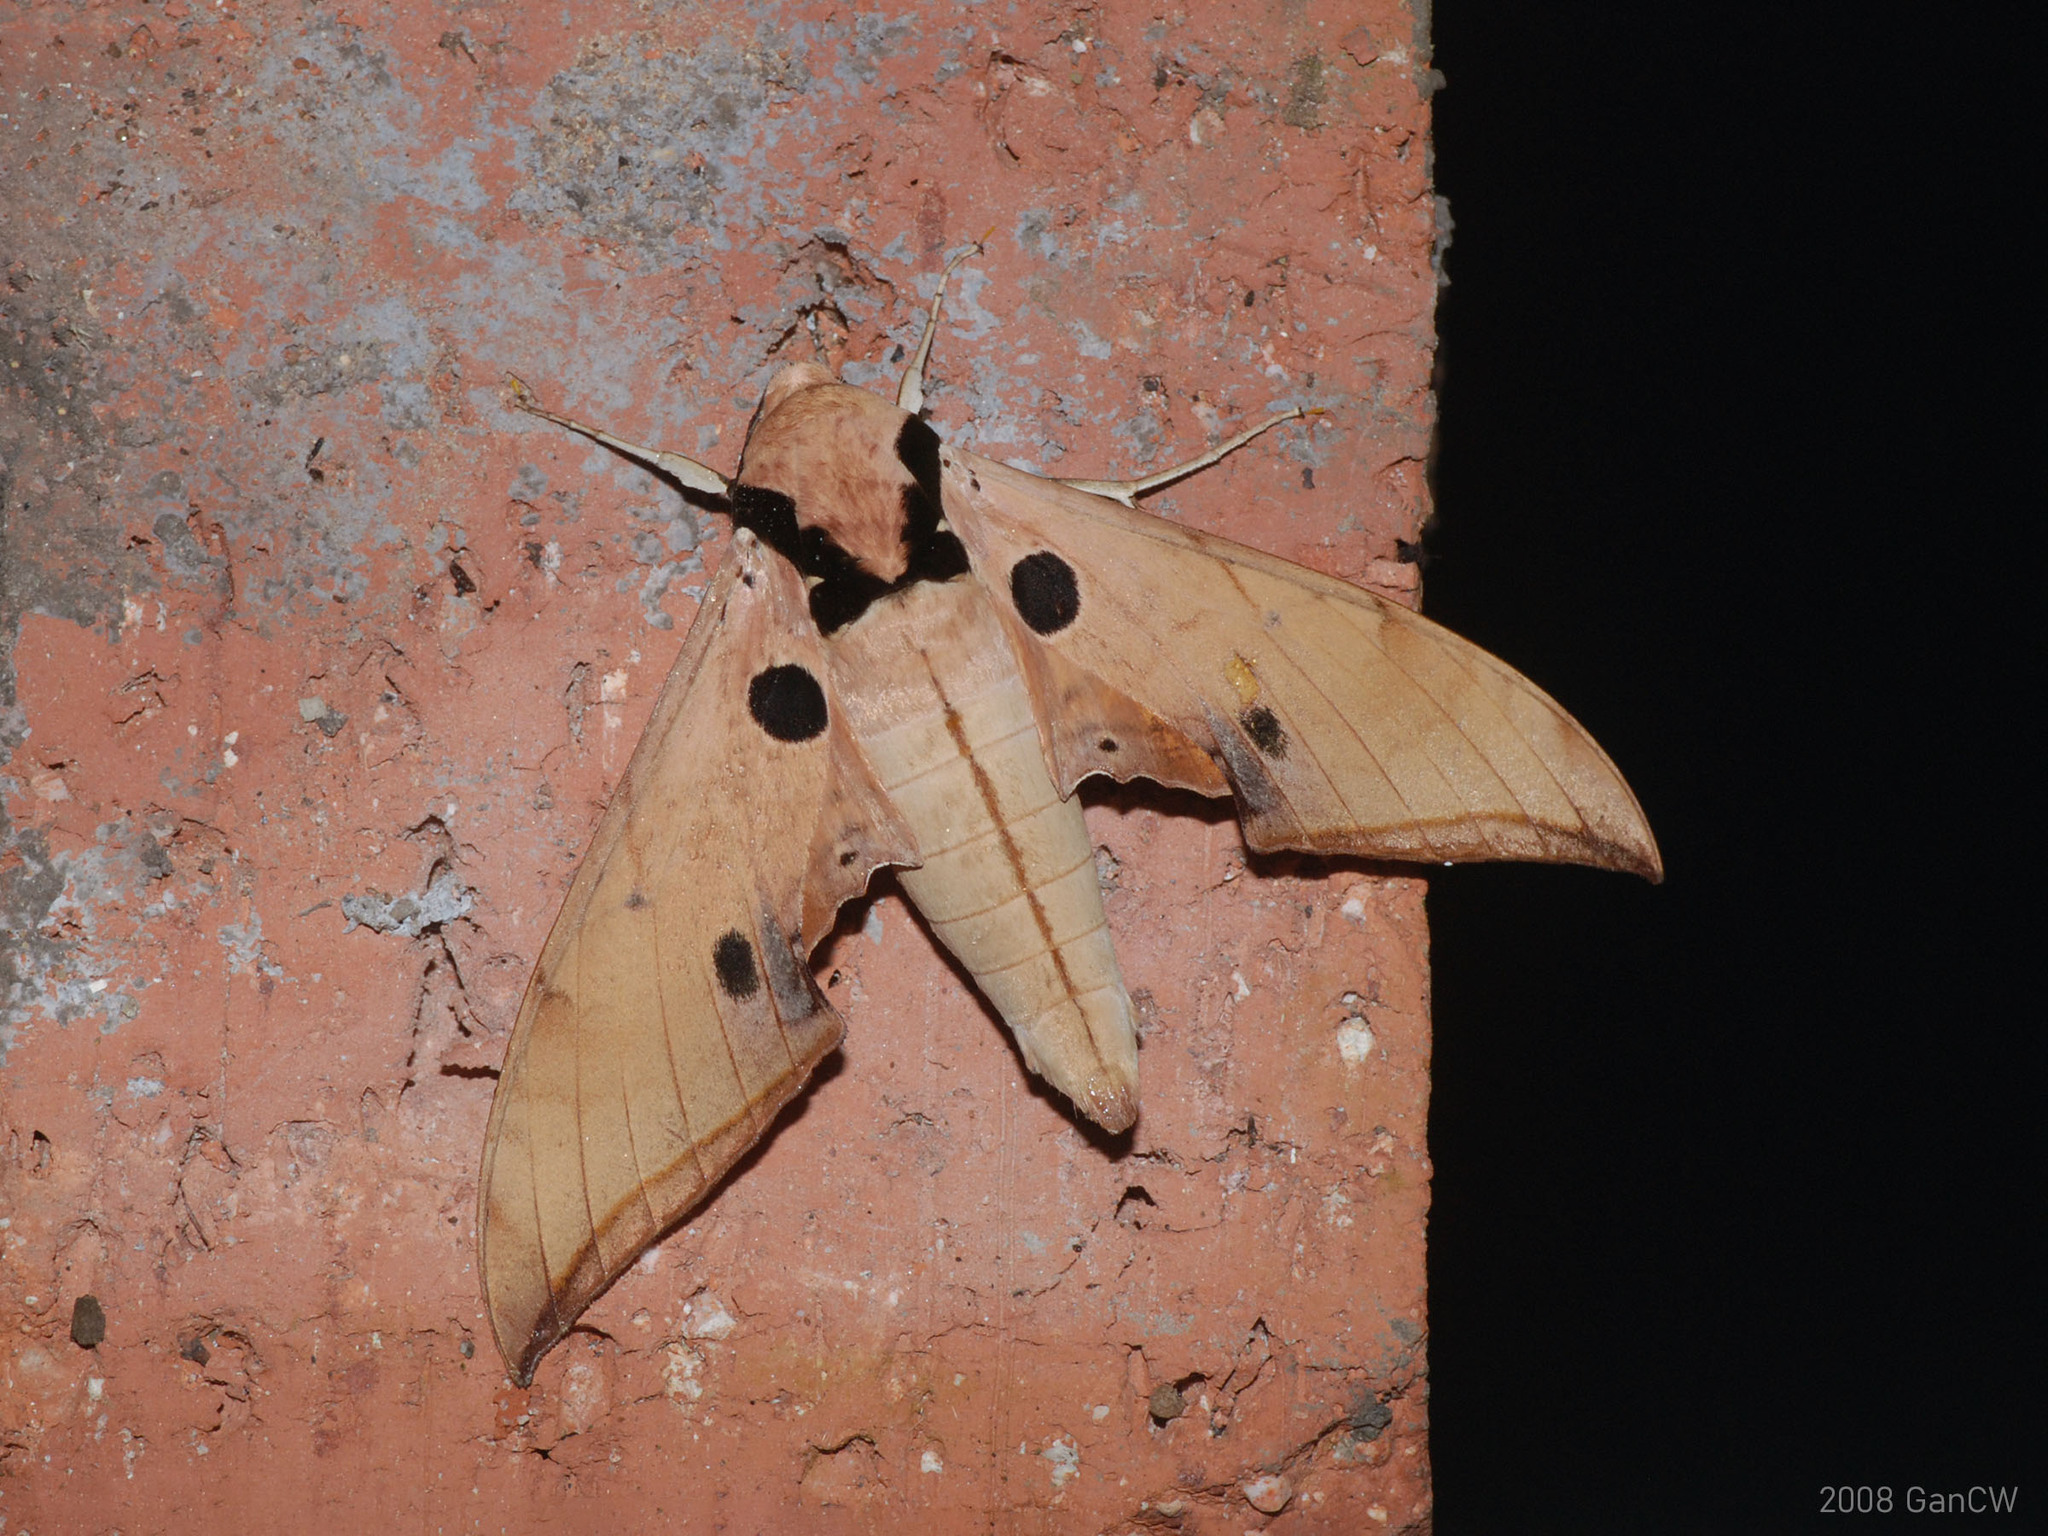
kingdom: Animalia
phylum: Arthropoda
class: Insecta
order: Lepidoptera
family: Sphingidae
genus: Ambulyx
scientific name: Ambulyx obliterata
